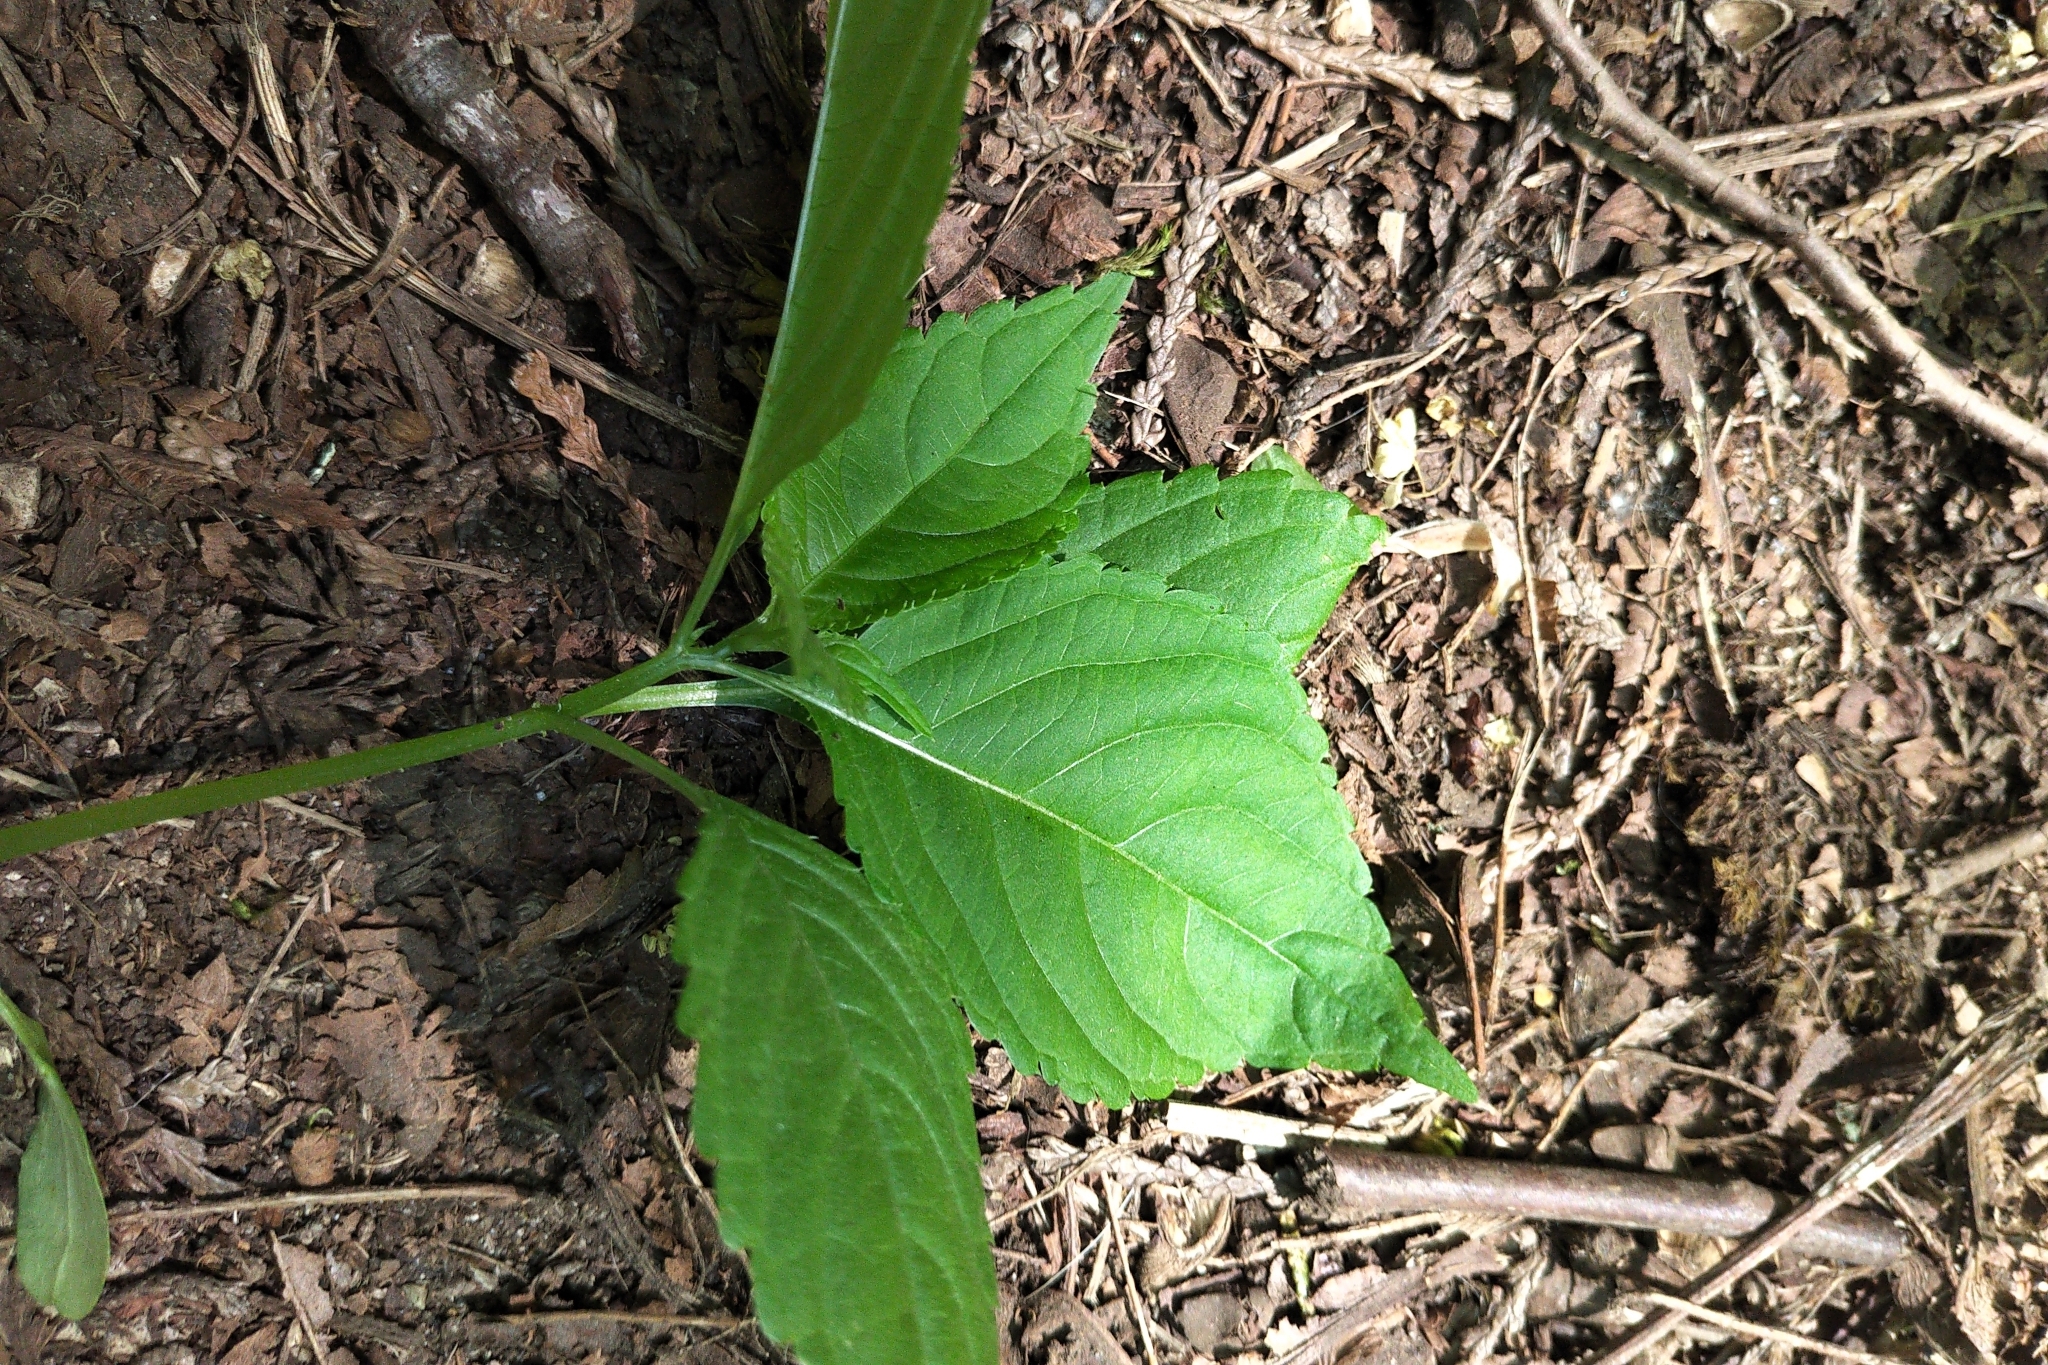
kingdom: Plantae
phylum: Tracheophyta
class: Magnoliopsida
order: Ericales
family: Balsaminaceae
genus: Impatiens
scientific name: Impatiens parviflora
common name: Small balsam
